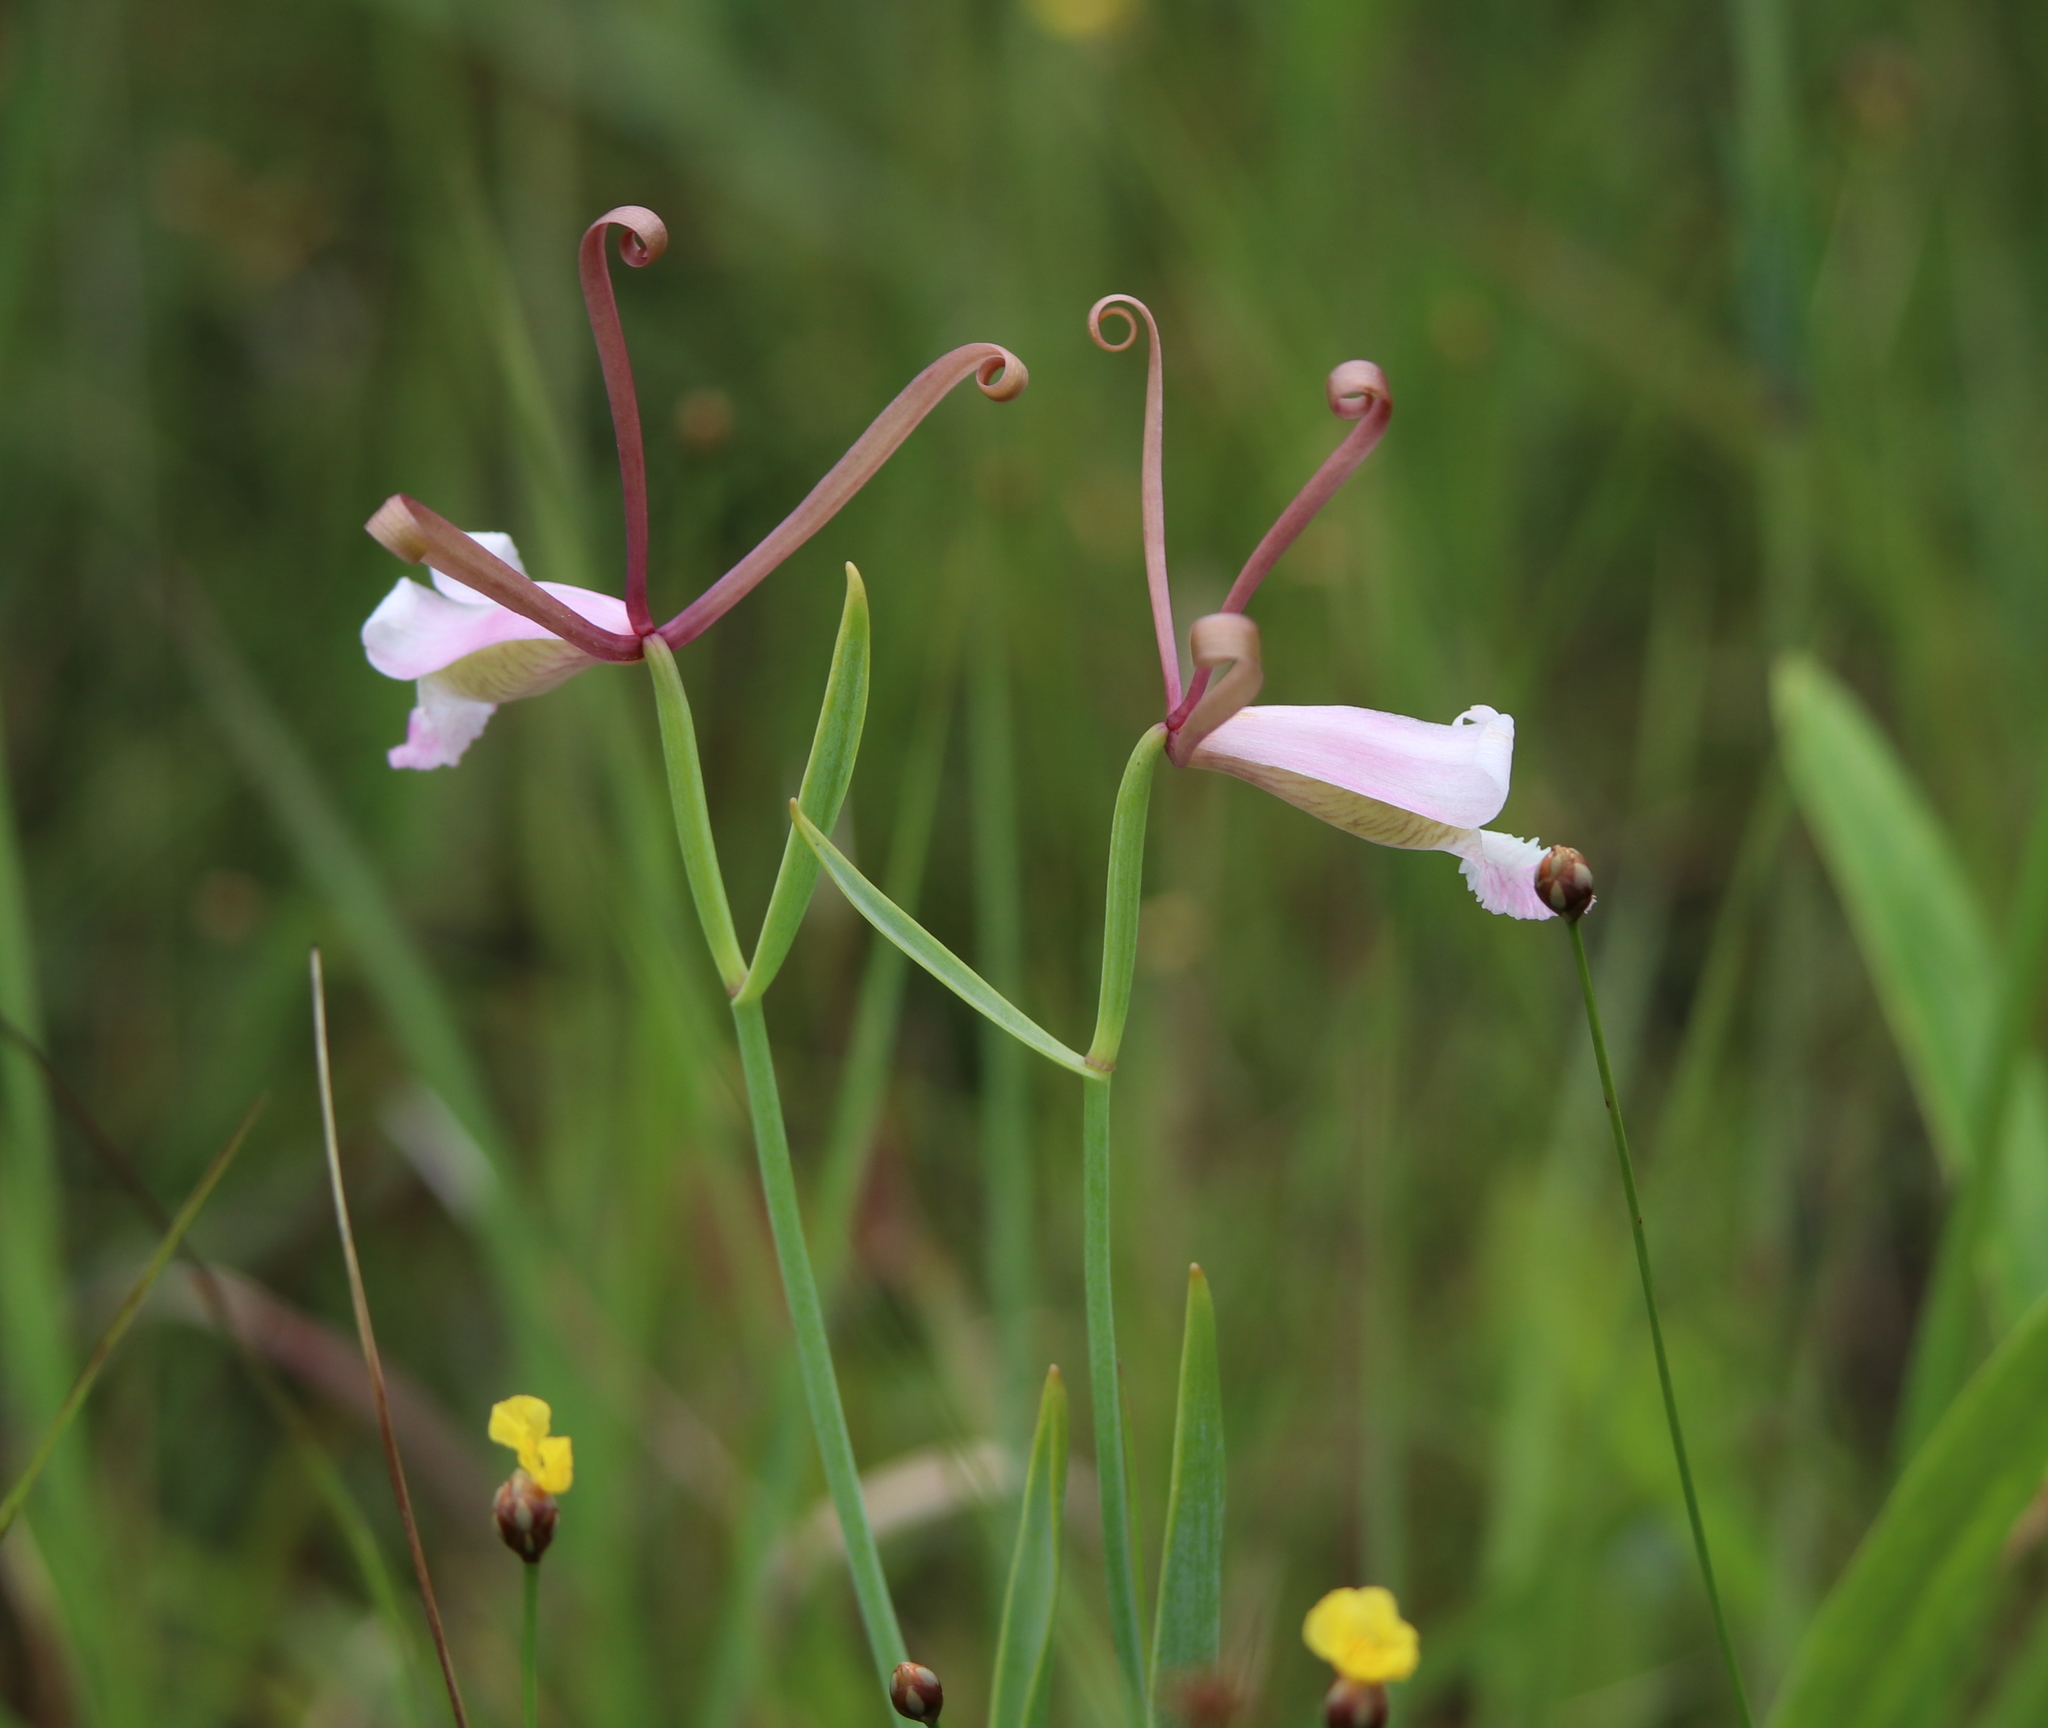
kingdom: Plantae
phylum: Tracheophyta
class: Liliopsida
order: Asparagales
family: Orchidaceae
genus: Cleistesiopsis
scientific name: Cleistesiopsis oricamporum
